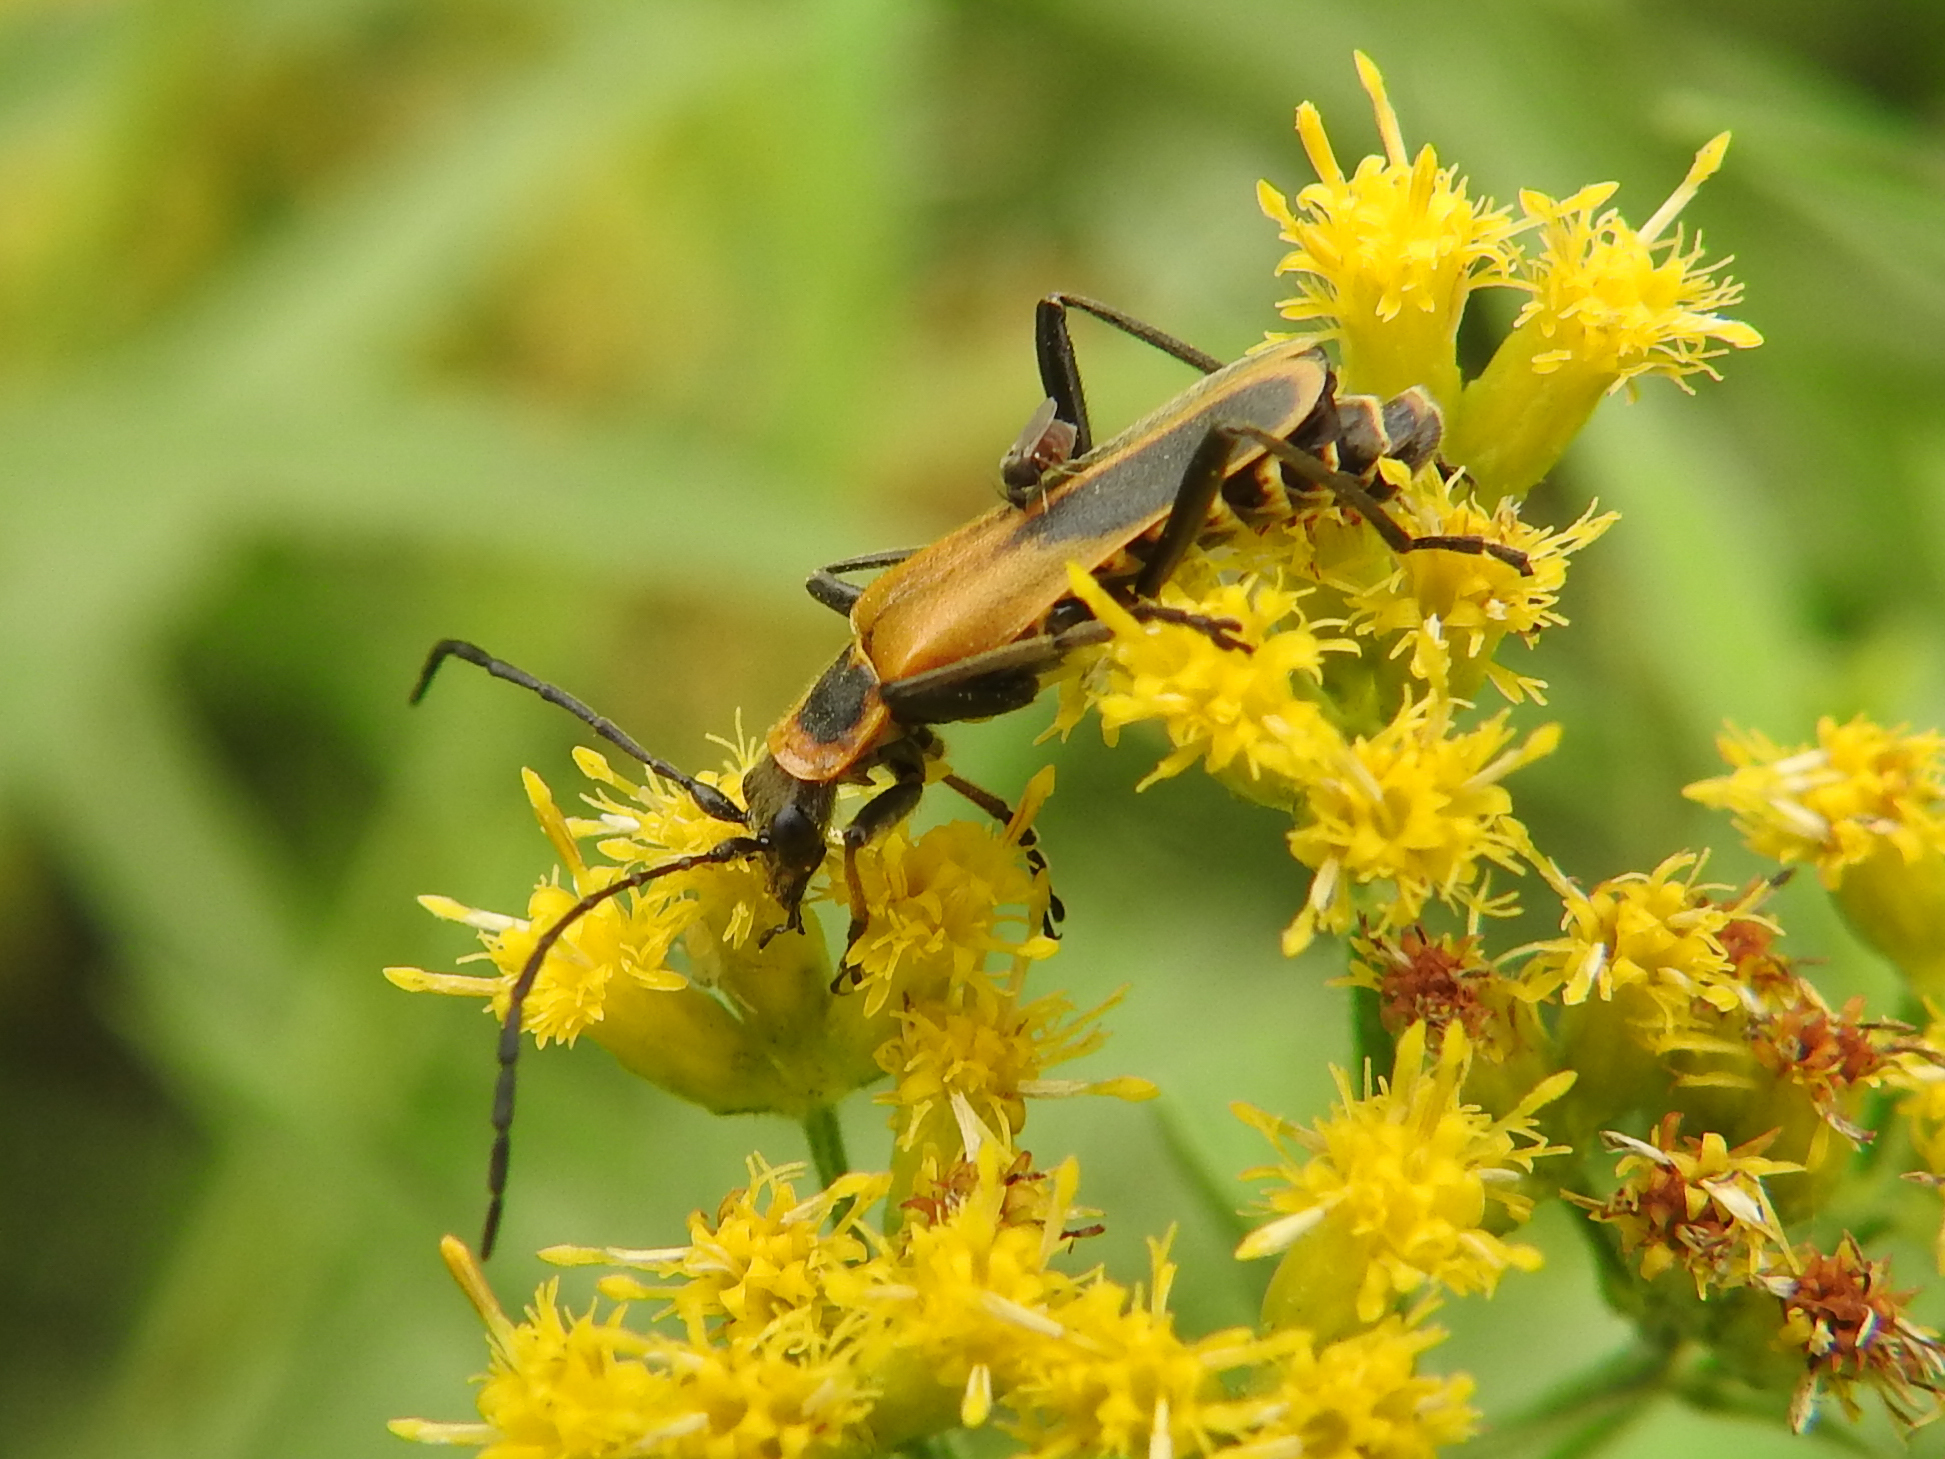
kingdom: Animalia
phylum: Arthropoda
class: Insecta
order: Coleoptera
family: Cantharidae
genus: Chauliognathus
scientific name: Chauliognathus pensylvanicus
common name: Goldenrod soldier beetle
